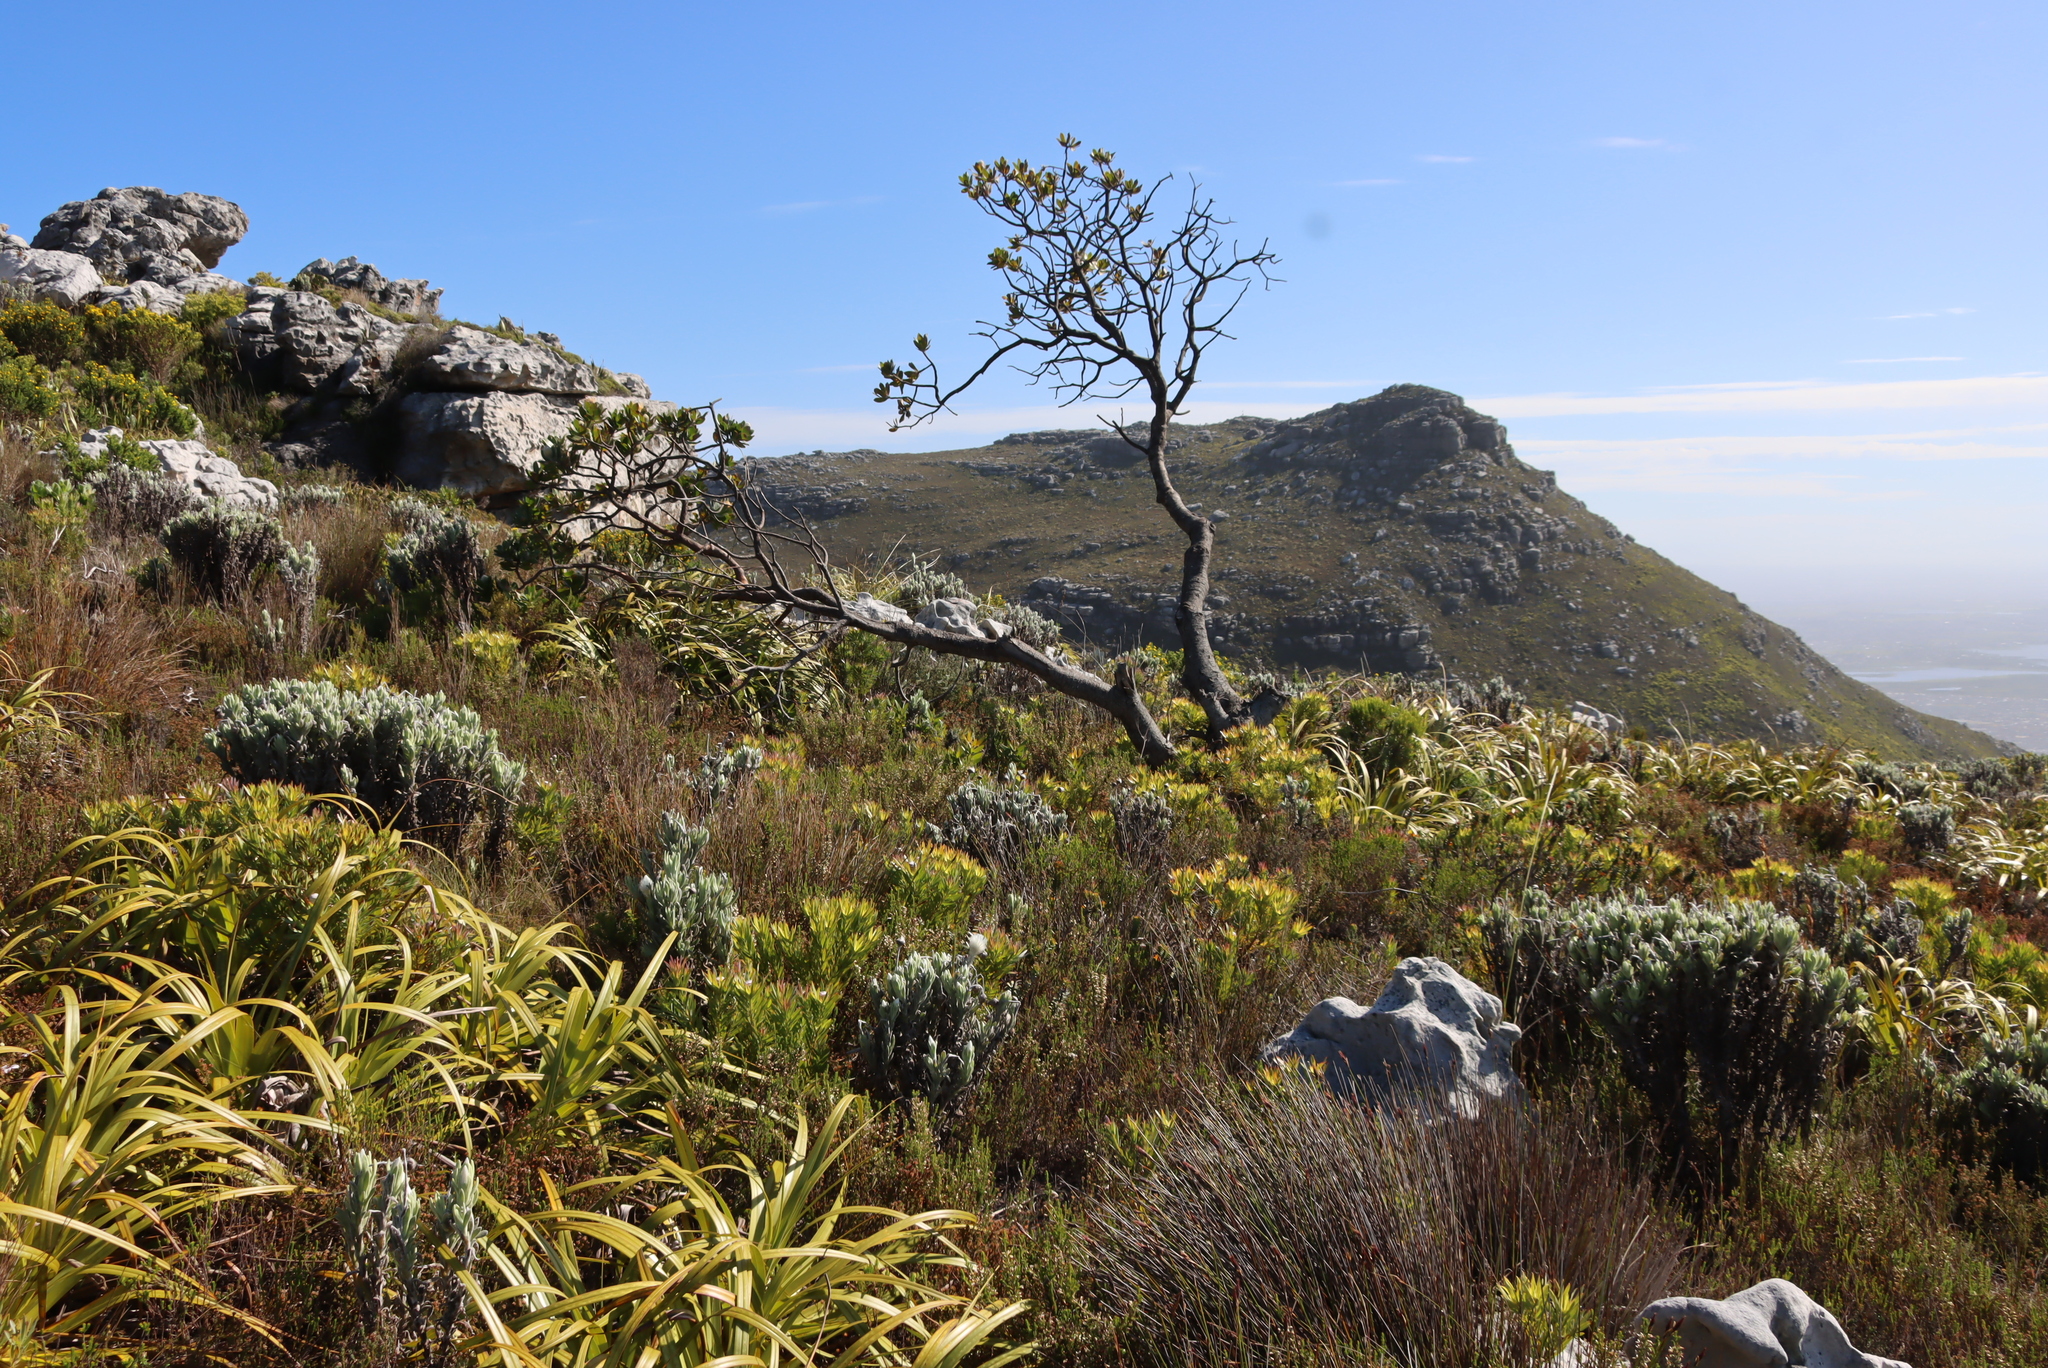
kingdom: Plantae
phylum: Tracheophyta
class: Magnoliopsida
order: Proteales
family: Proteaceae
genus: Leucospermum
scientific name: Leucospermum conocarpodendron
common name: Tree pincushion
